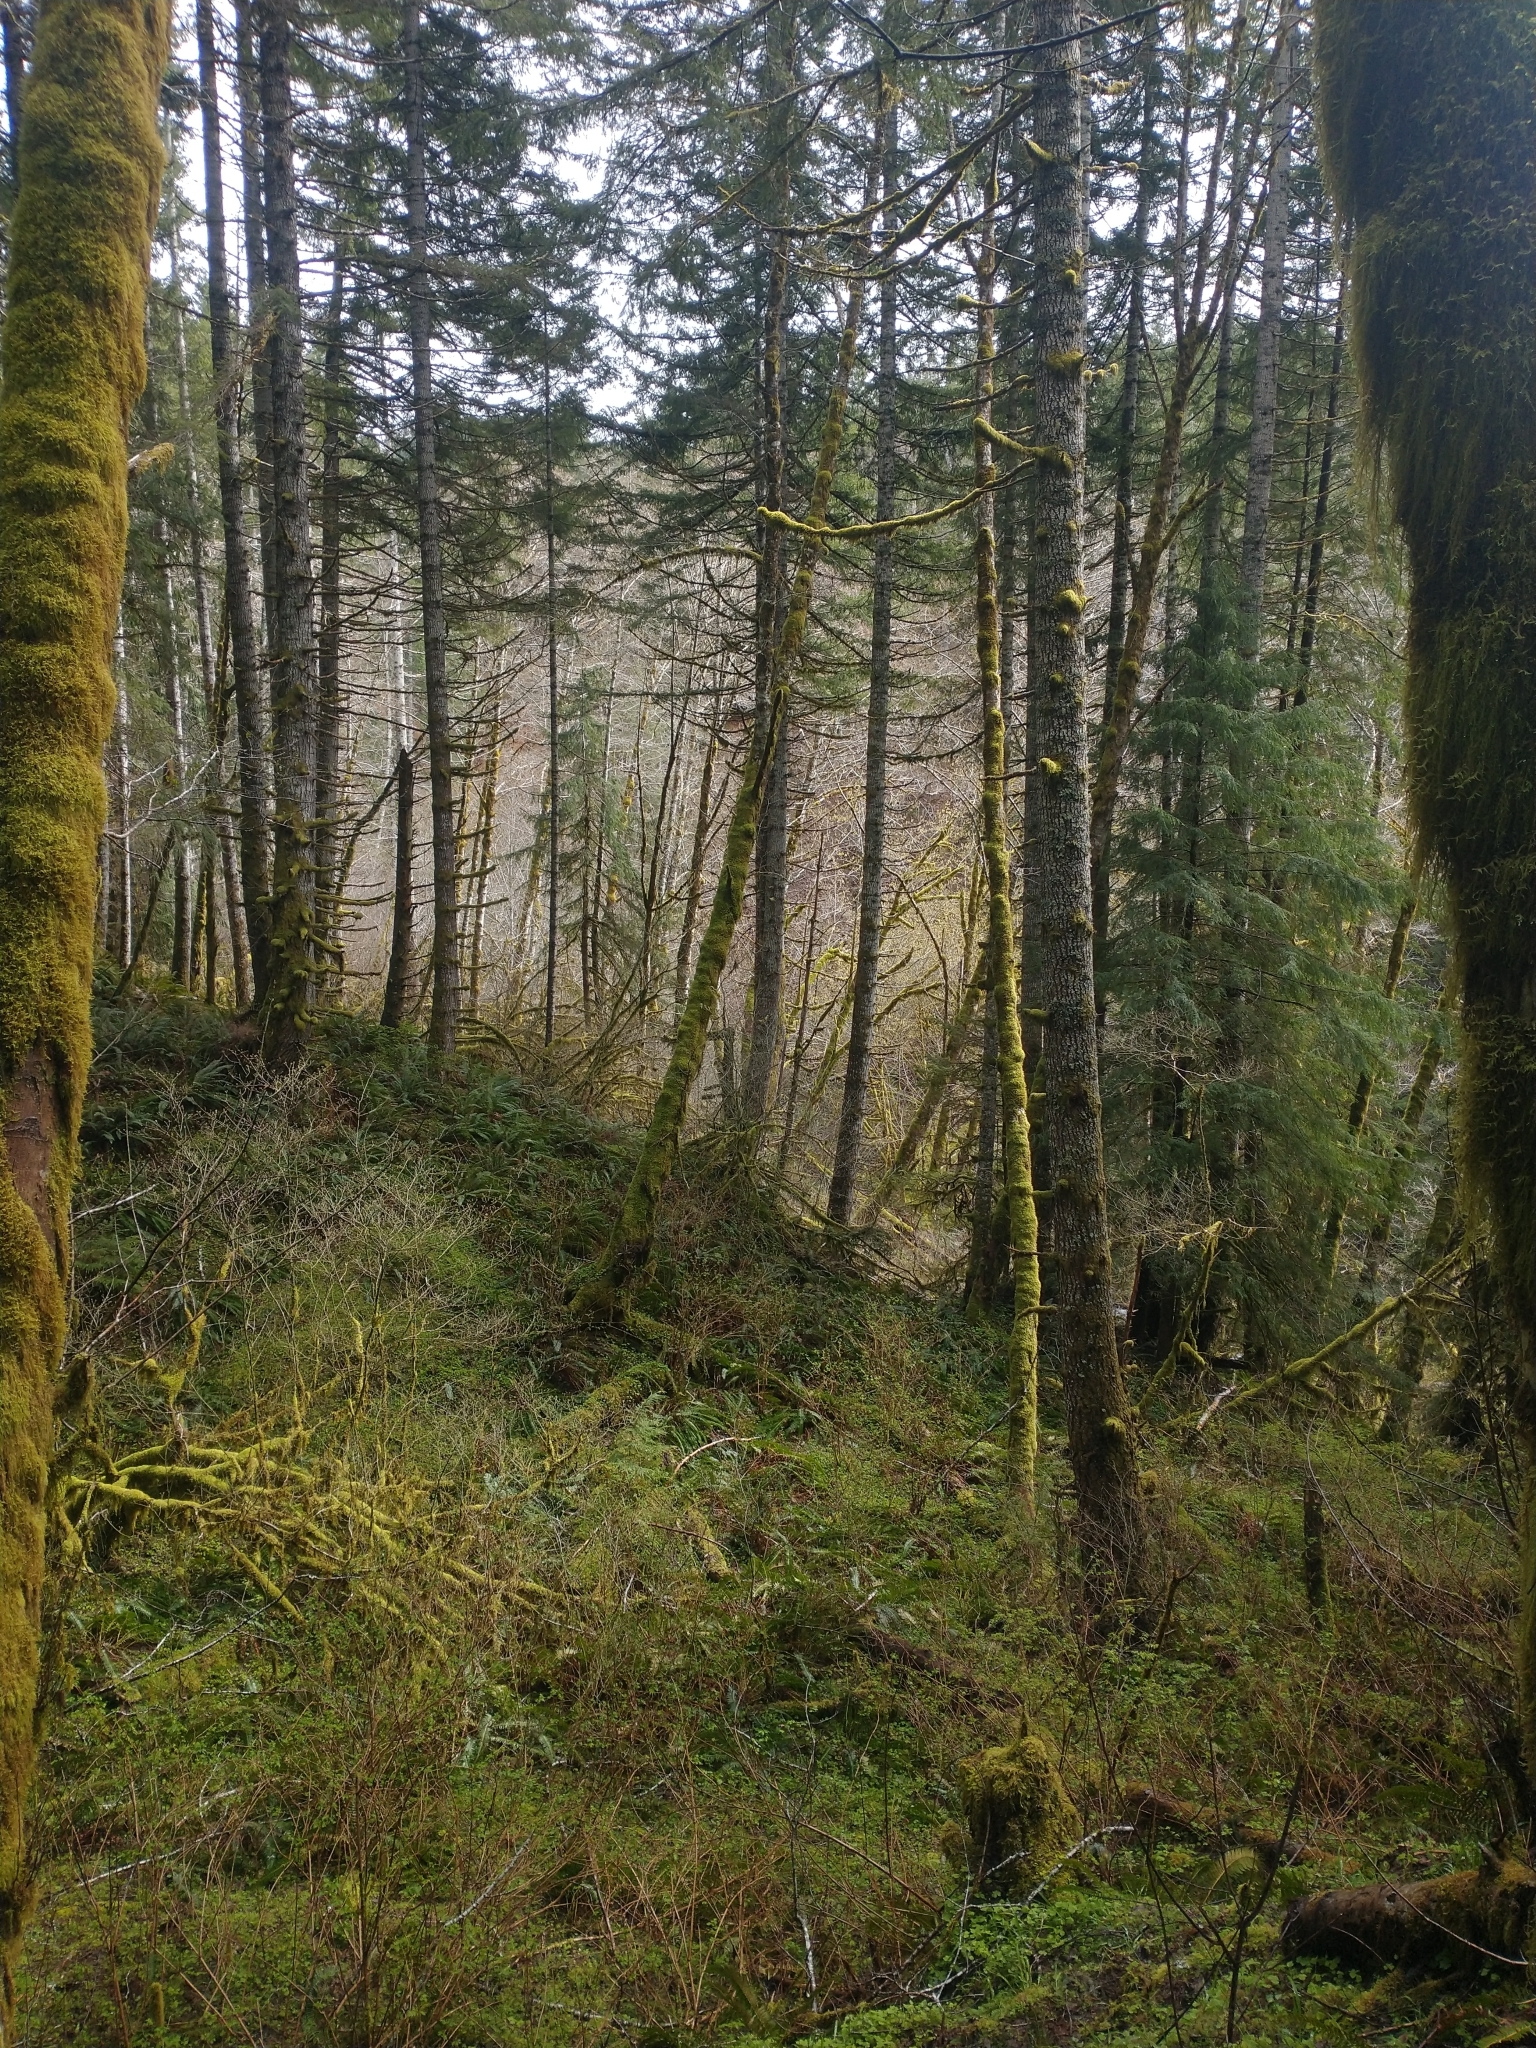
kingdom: Plantae
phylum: Tracheophyta
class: Pinopsida
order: Pinales
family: Pinaceae
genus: Pseudotsuga
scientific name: Pseudotsuga menziesii
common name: Douglas fir
